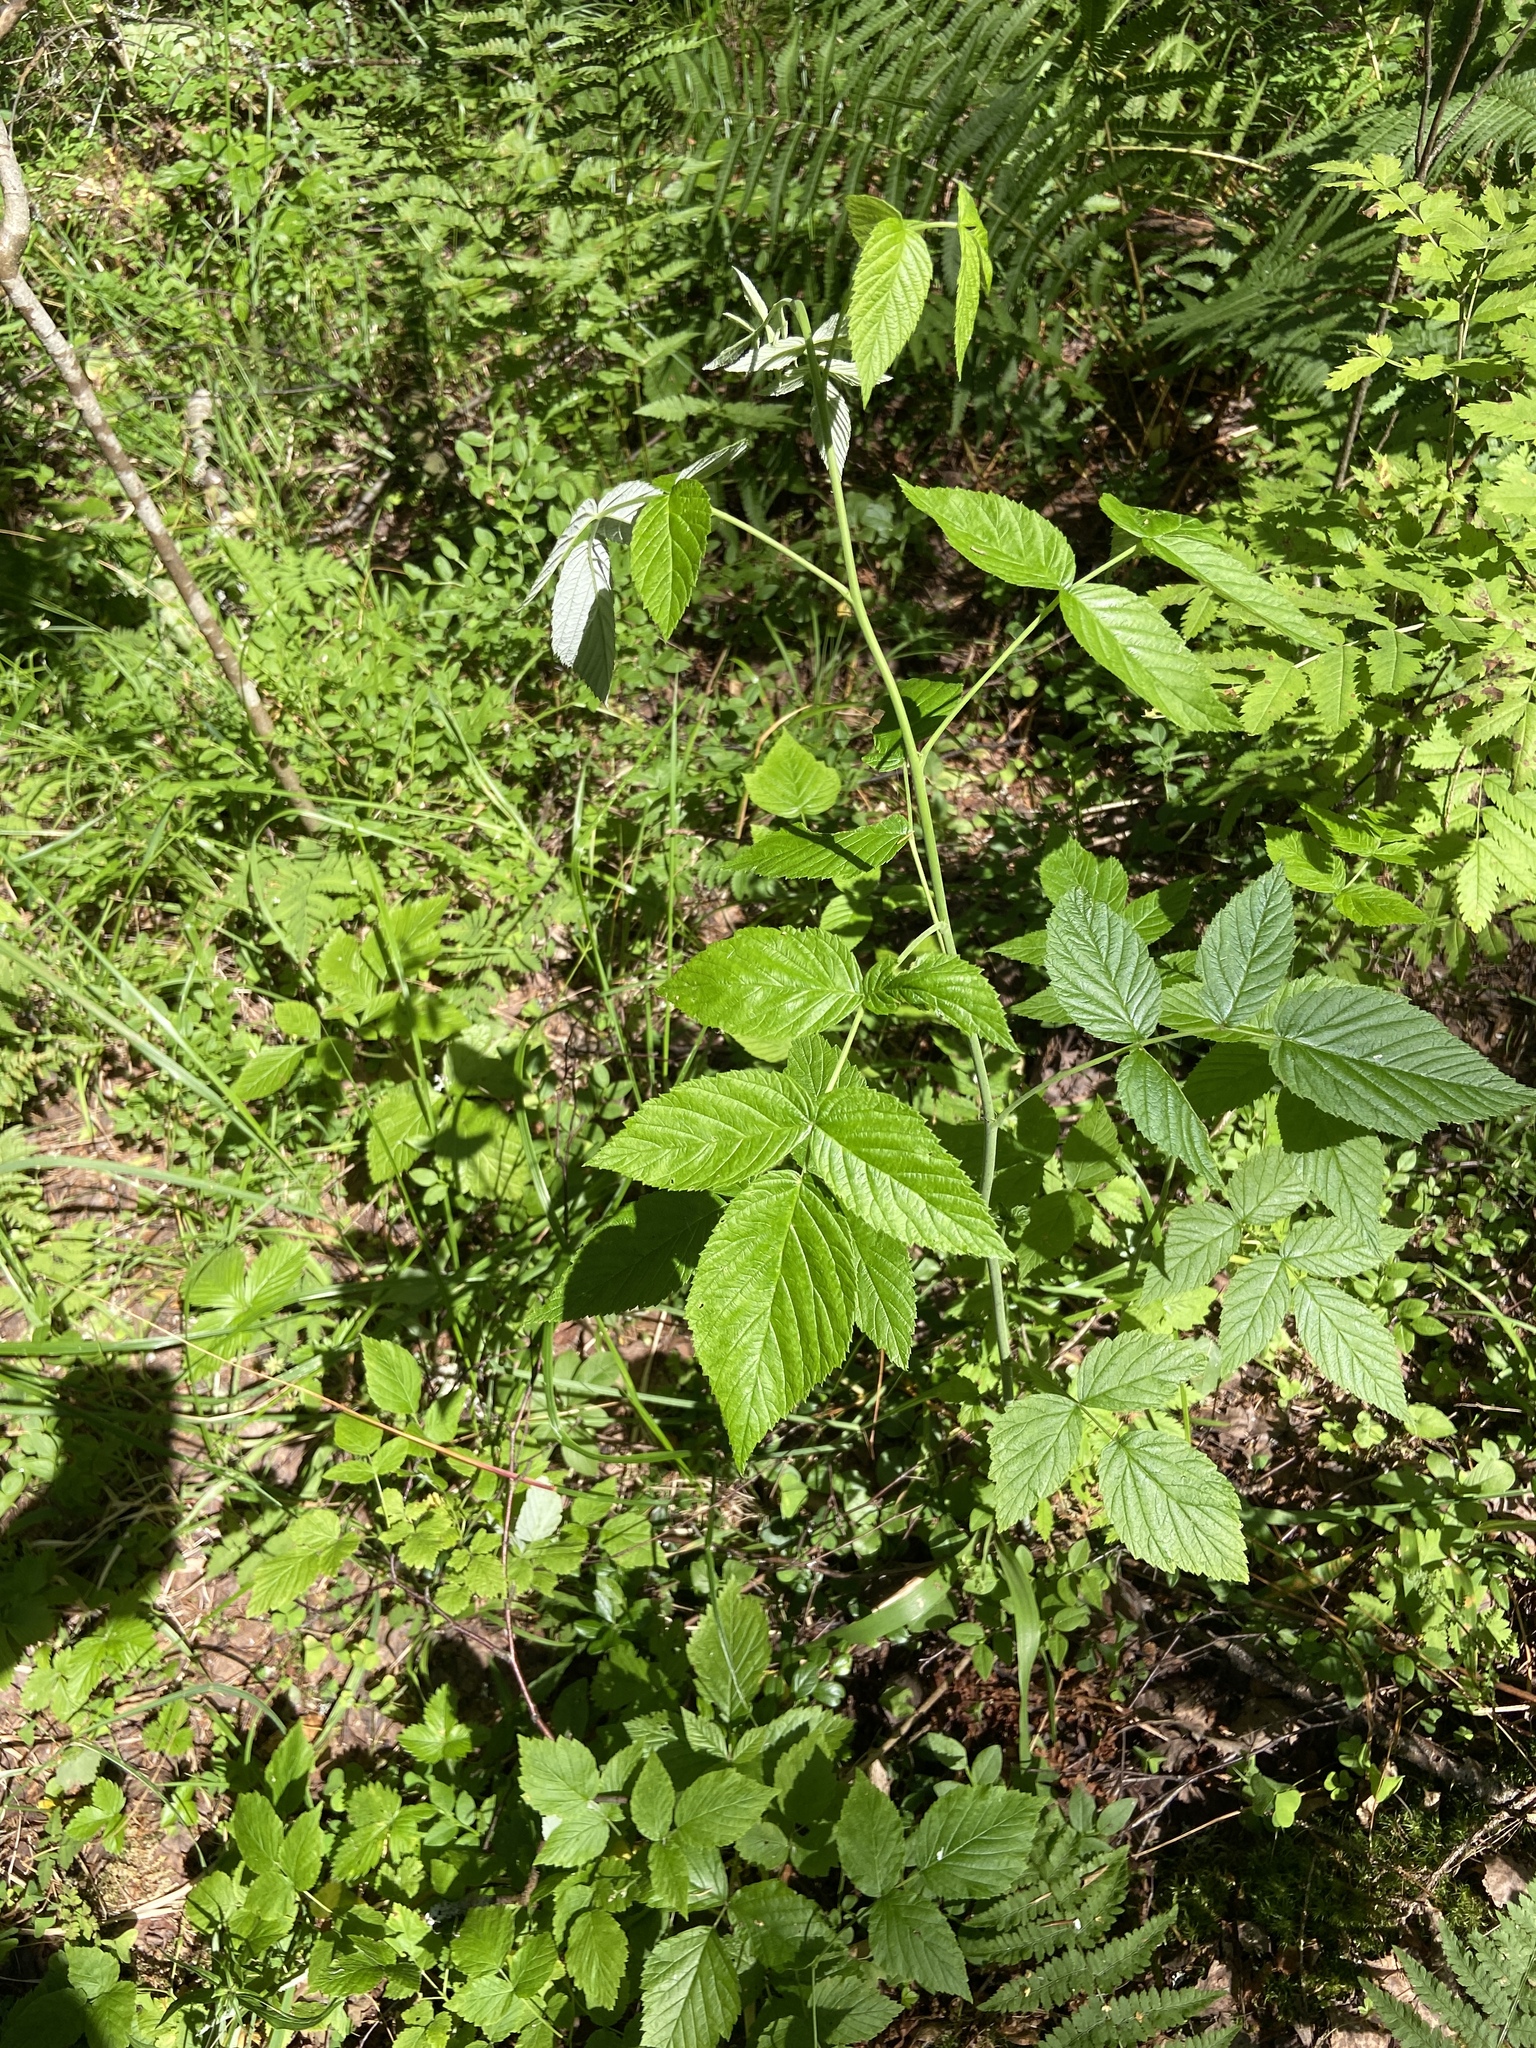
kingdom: Plantae
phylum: Tracheophyta
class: Magnoliopsida
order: Rosales
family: Rosaceae
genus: Rubus
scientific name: Rubus idaeus
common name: Raspberry
